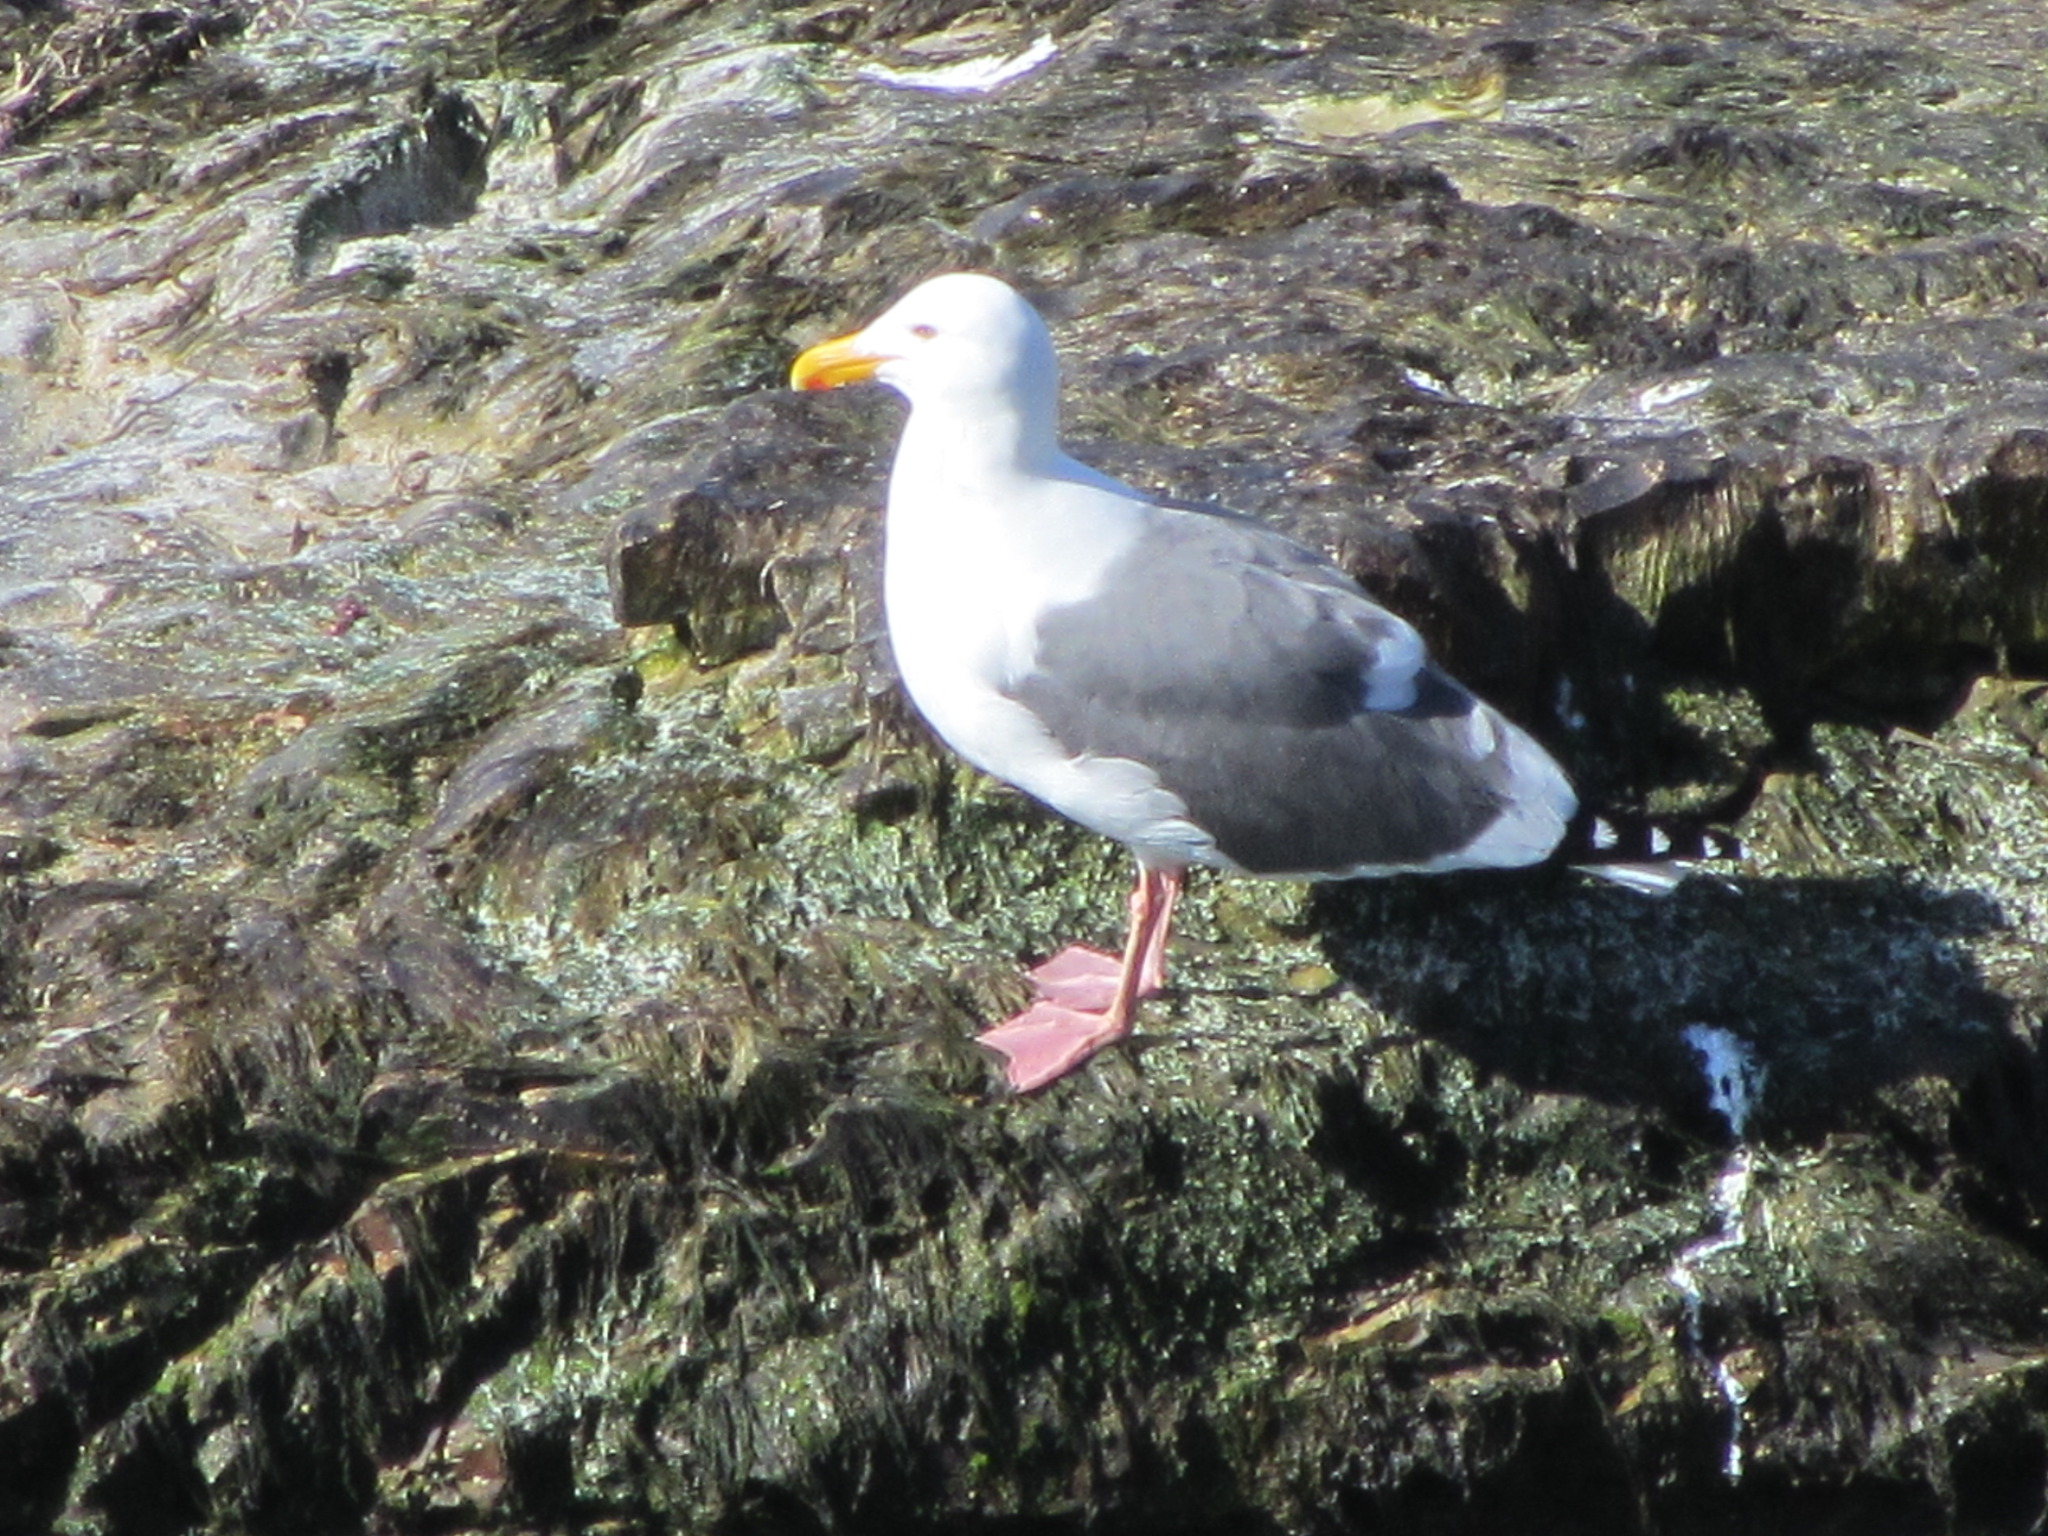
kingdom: Animalia
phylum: Chordata
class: Aves
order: Charadriiformes
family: Laridae
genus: Larus
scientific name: Larus occidentalis
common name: Western gull
